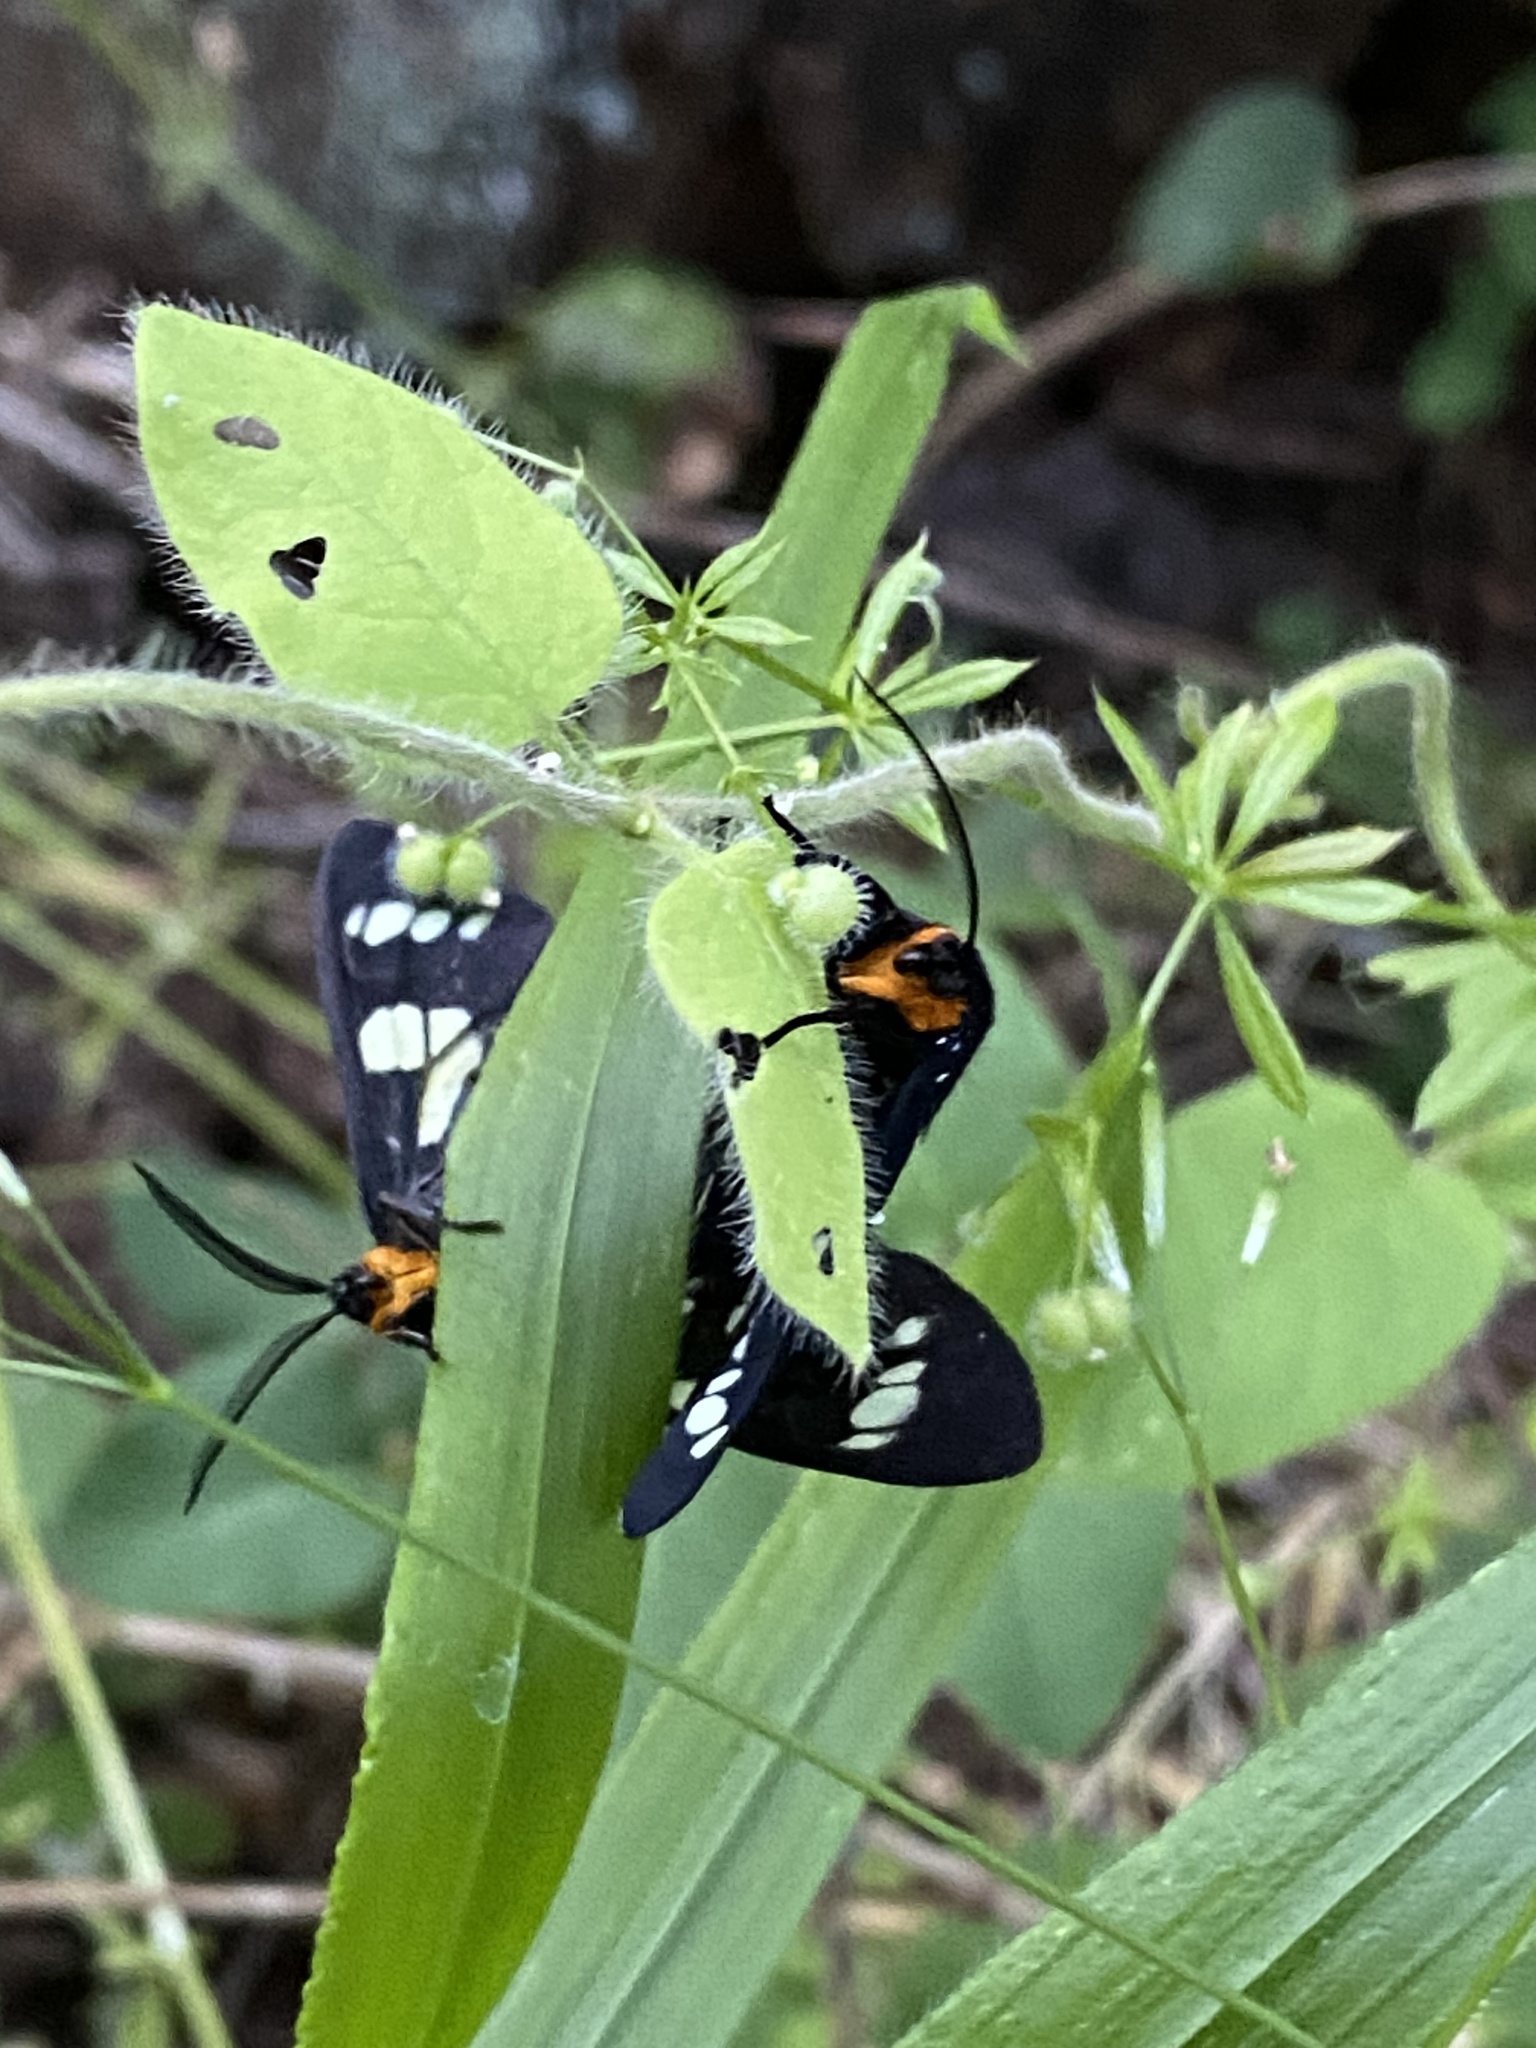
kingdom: Animalia
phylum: Arthropoda
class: Insecta
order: Lepidoptera
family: Erebidae
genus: Gnophaela
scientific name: Gnophaela latipennis
